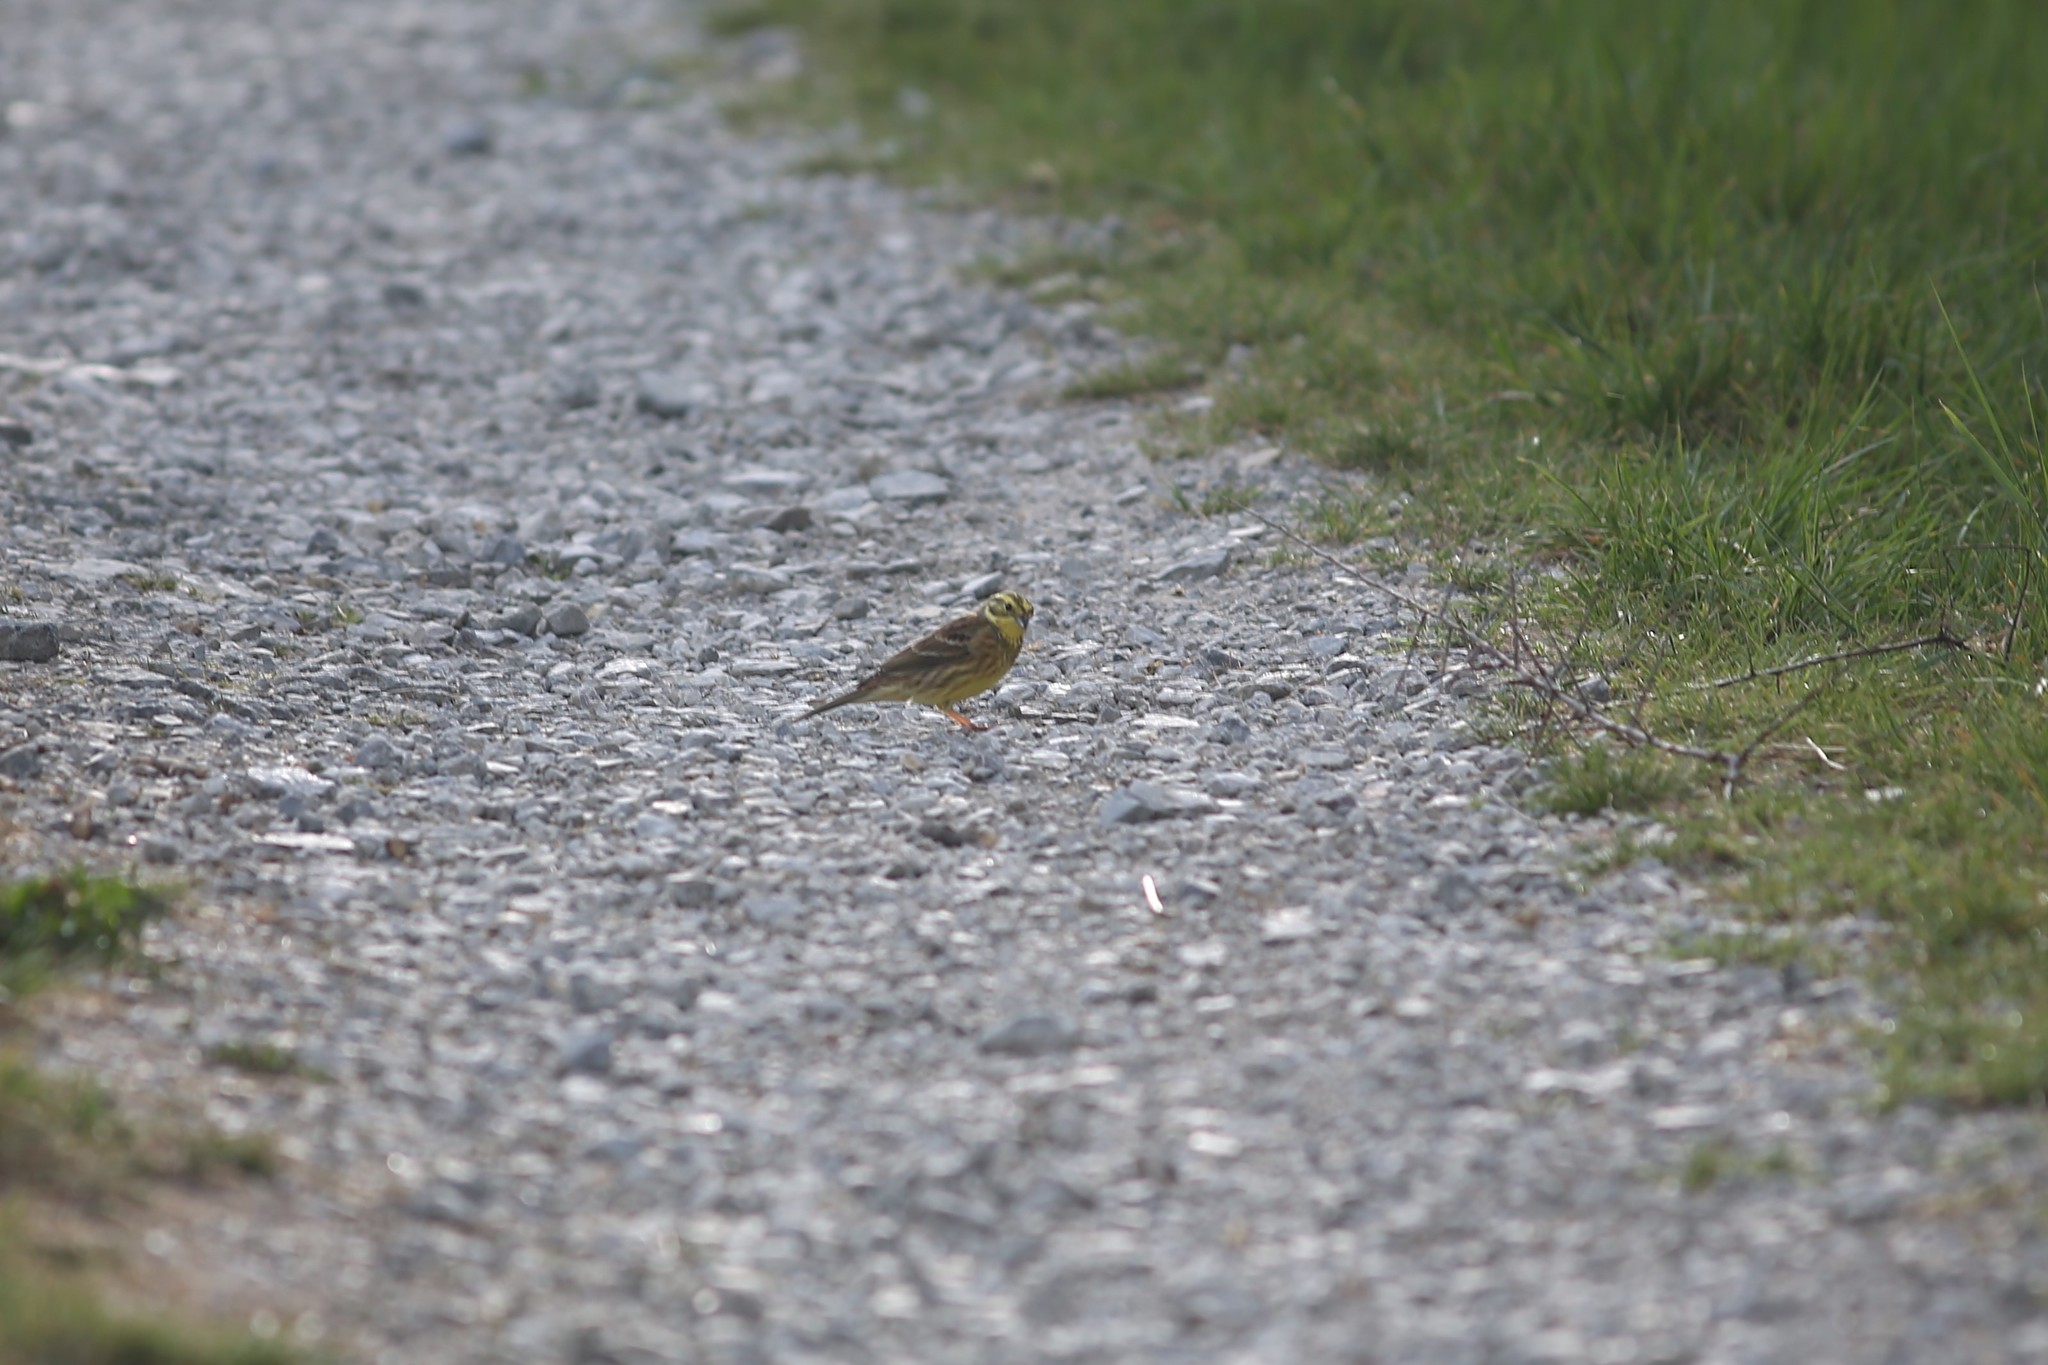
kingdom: Animalia
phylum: Chordata
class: Aves
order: Passeriformes
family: Emberizidae
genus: Emberiza
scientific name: Emberiza citrinella
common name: Yellowhammer
